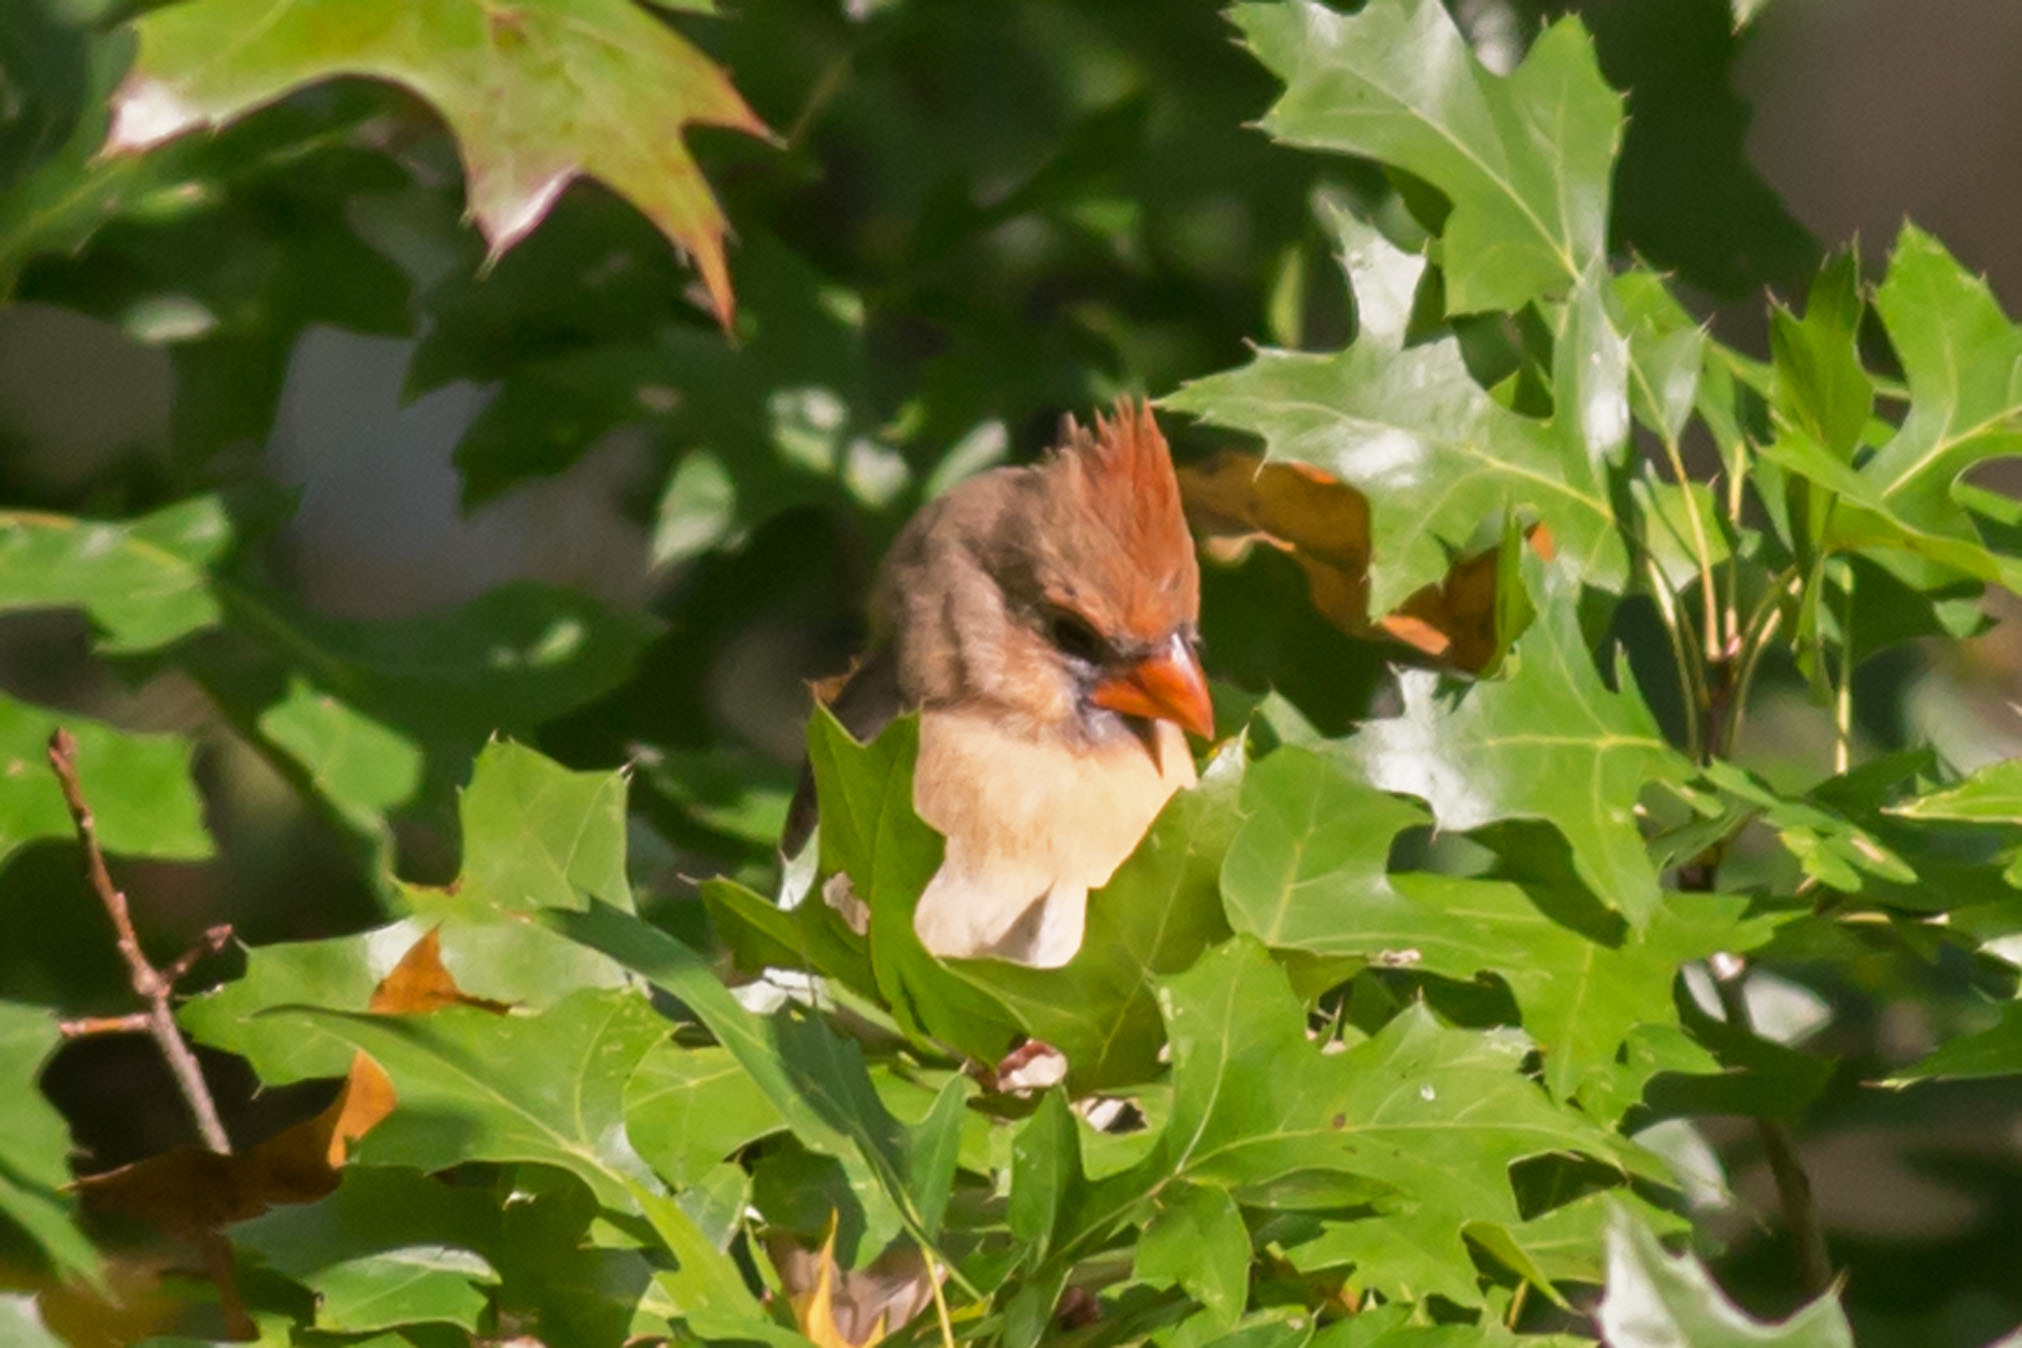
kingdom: Animalia
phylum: Chordata
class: Aves
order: Passeriformes
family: Cardinalidae
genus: Cardinalis
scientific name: Cardinalis cardinalis
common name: Northern cardinal
